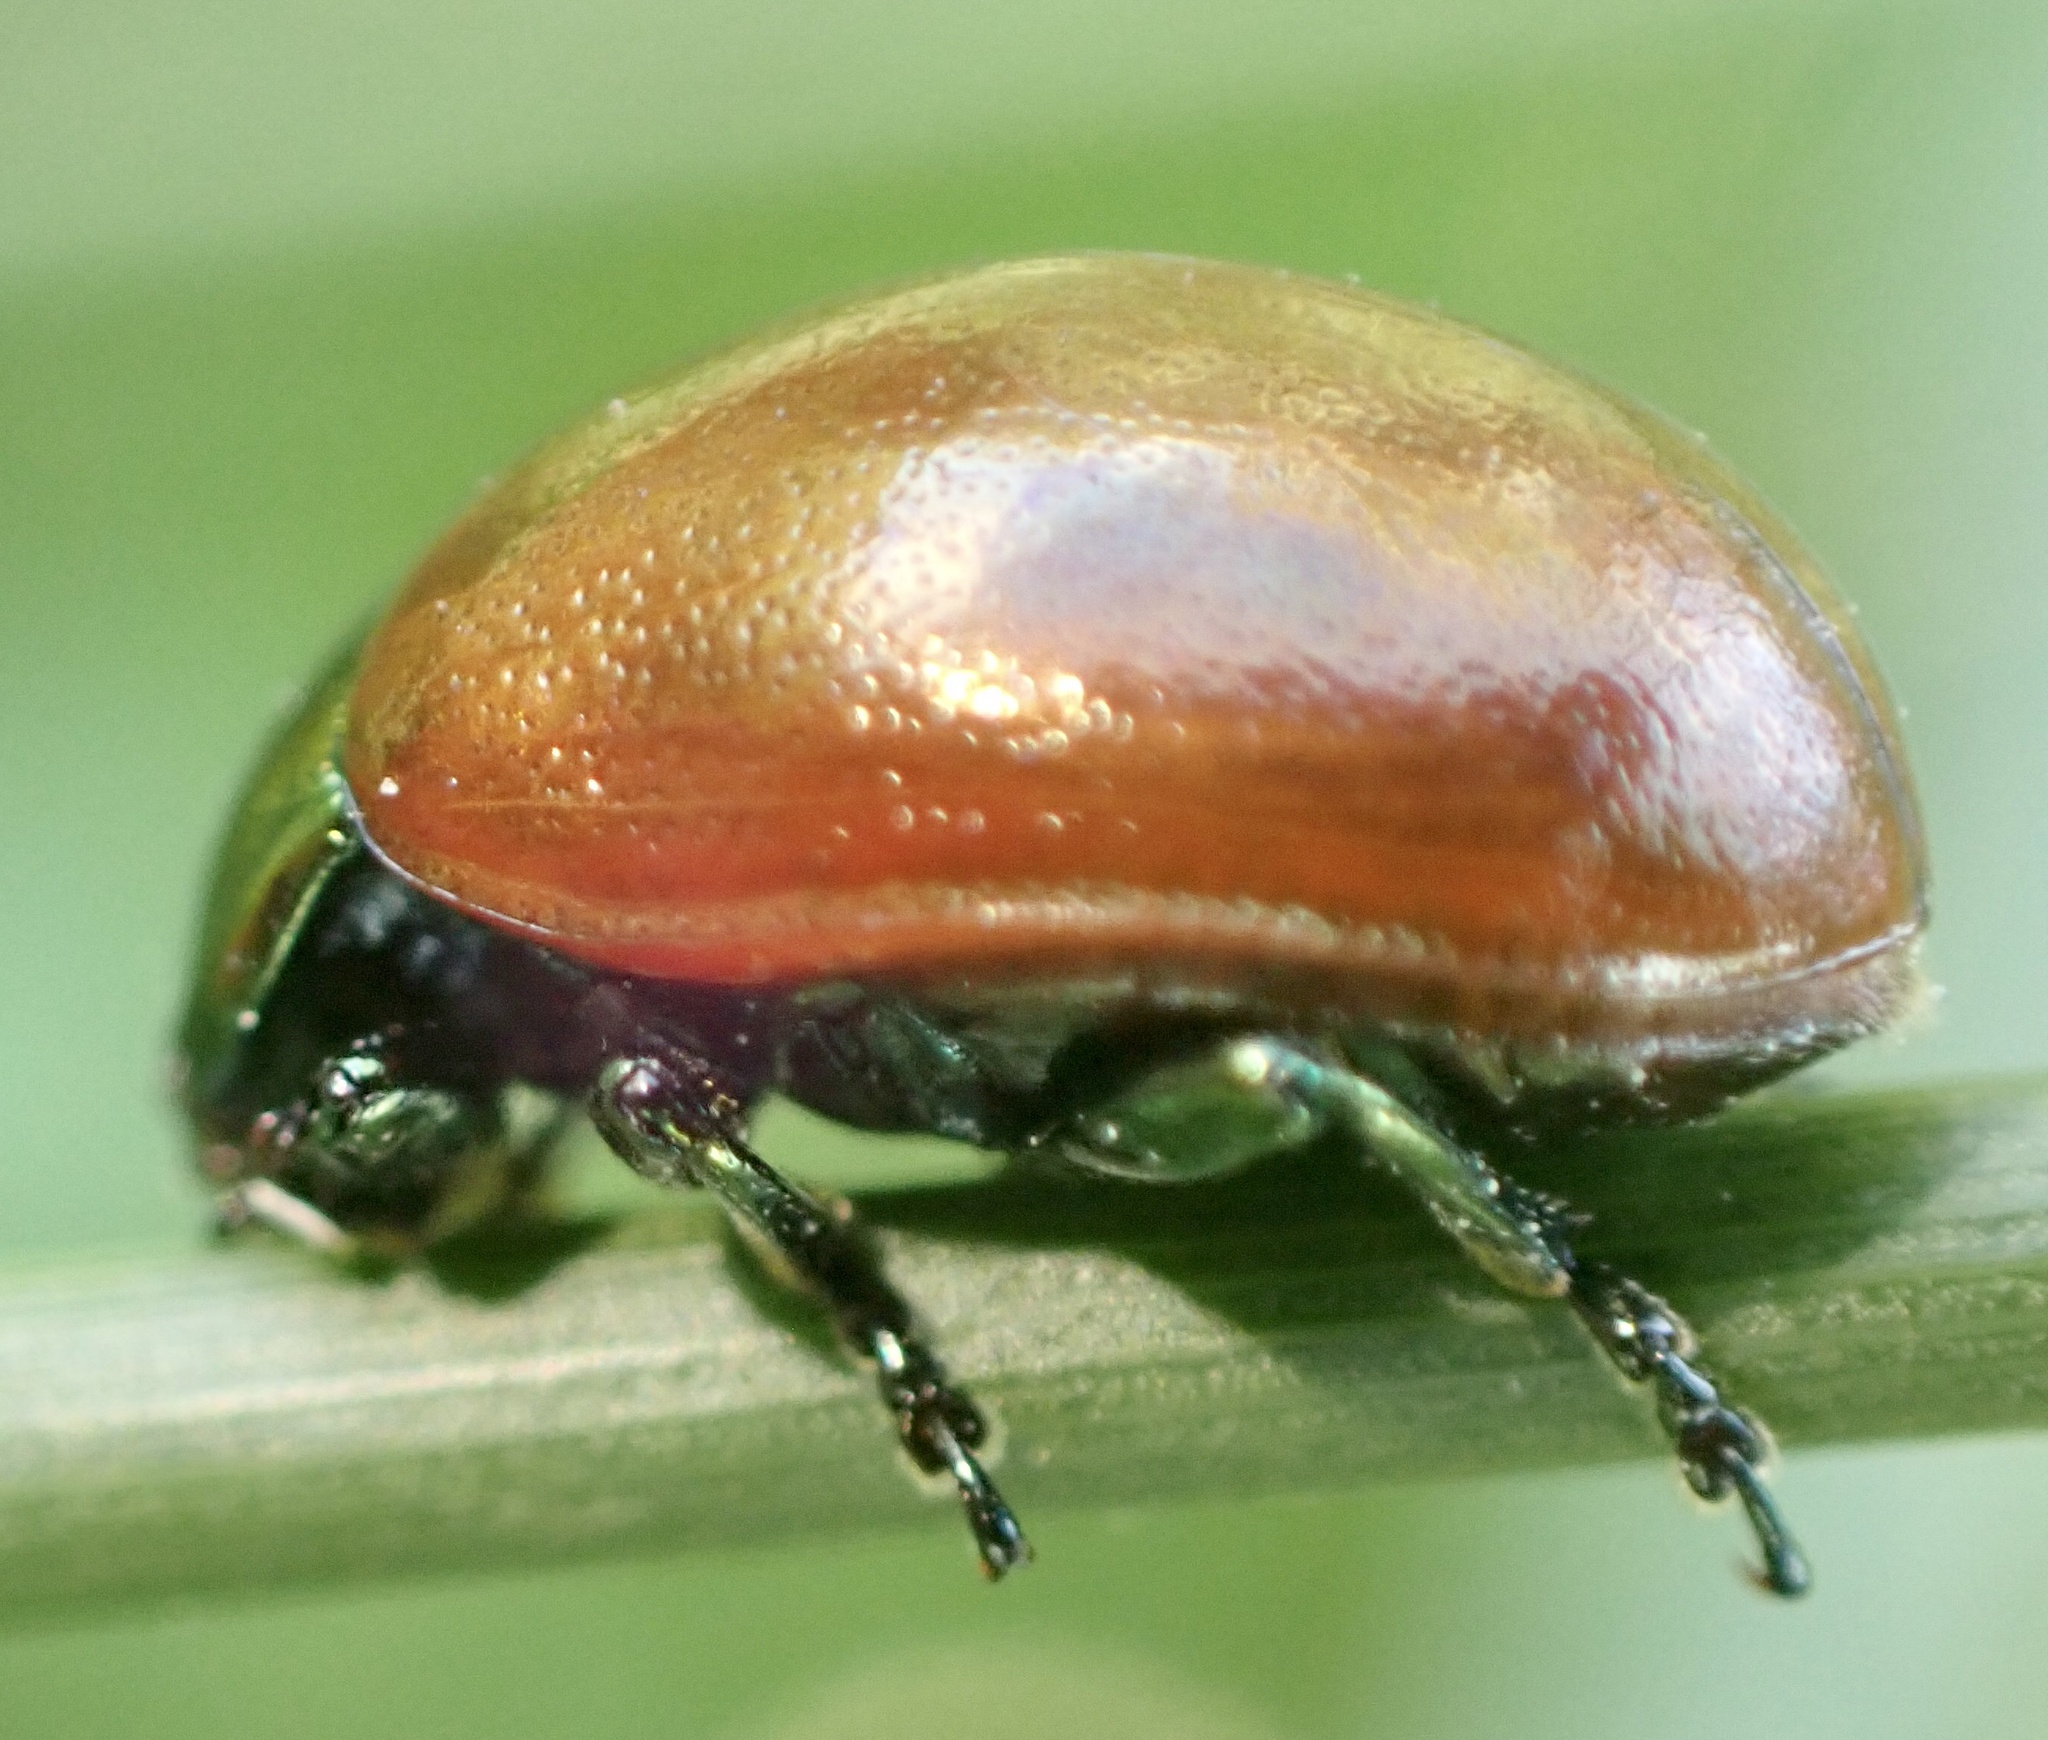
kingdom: Animalia
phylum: Arthropoda
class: Insecta
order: Coleoptera
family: Chrysomelidae
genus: Chrysomela
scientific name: Chrysomela polita
